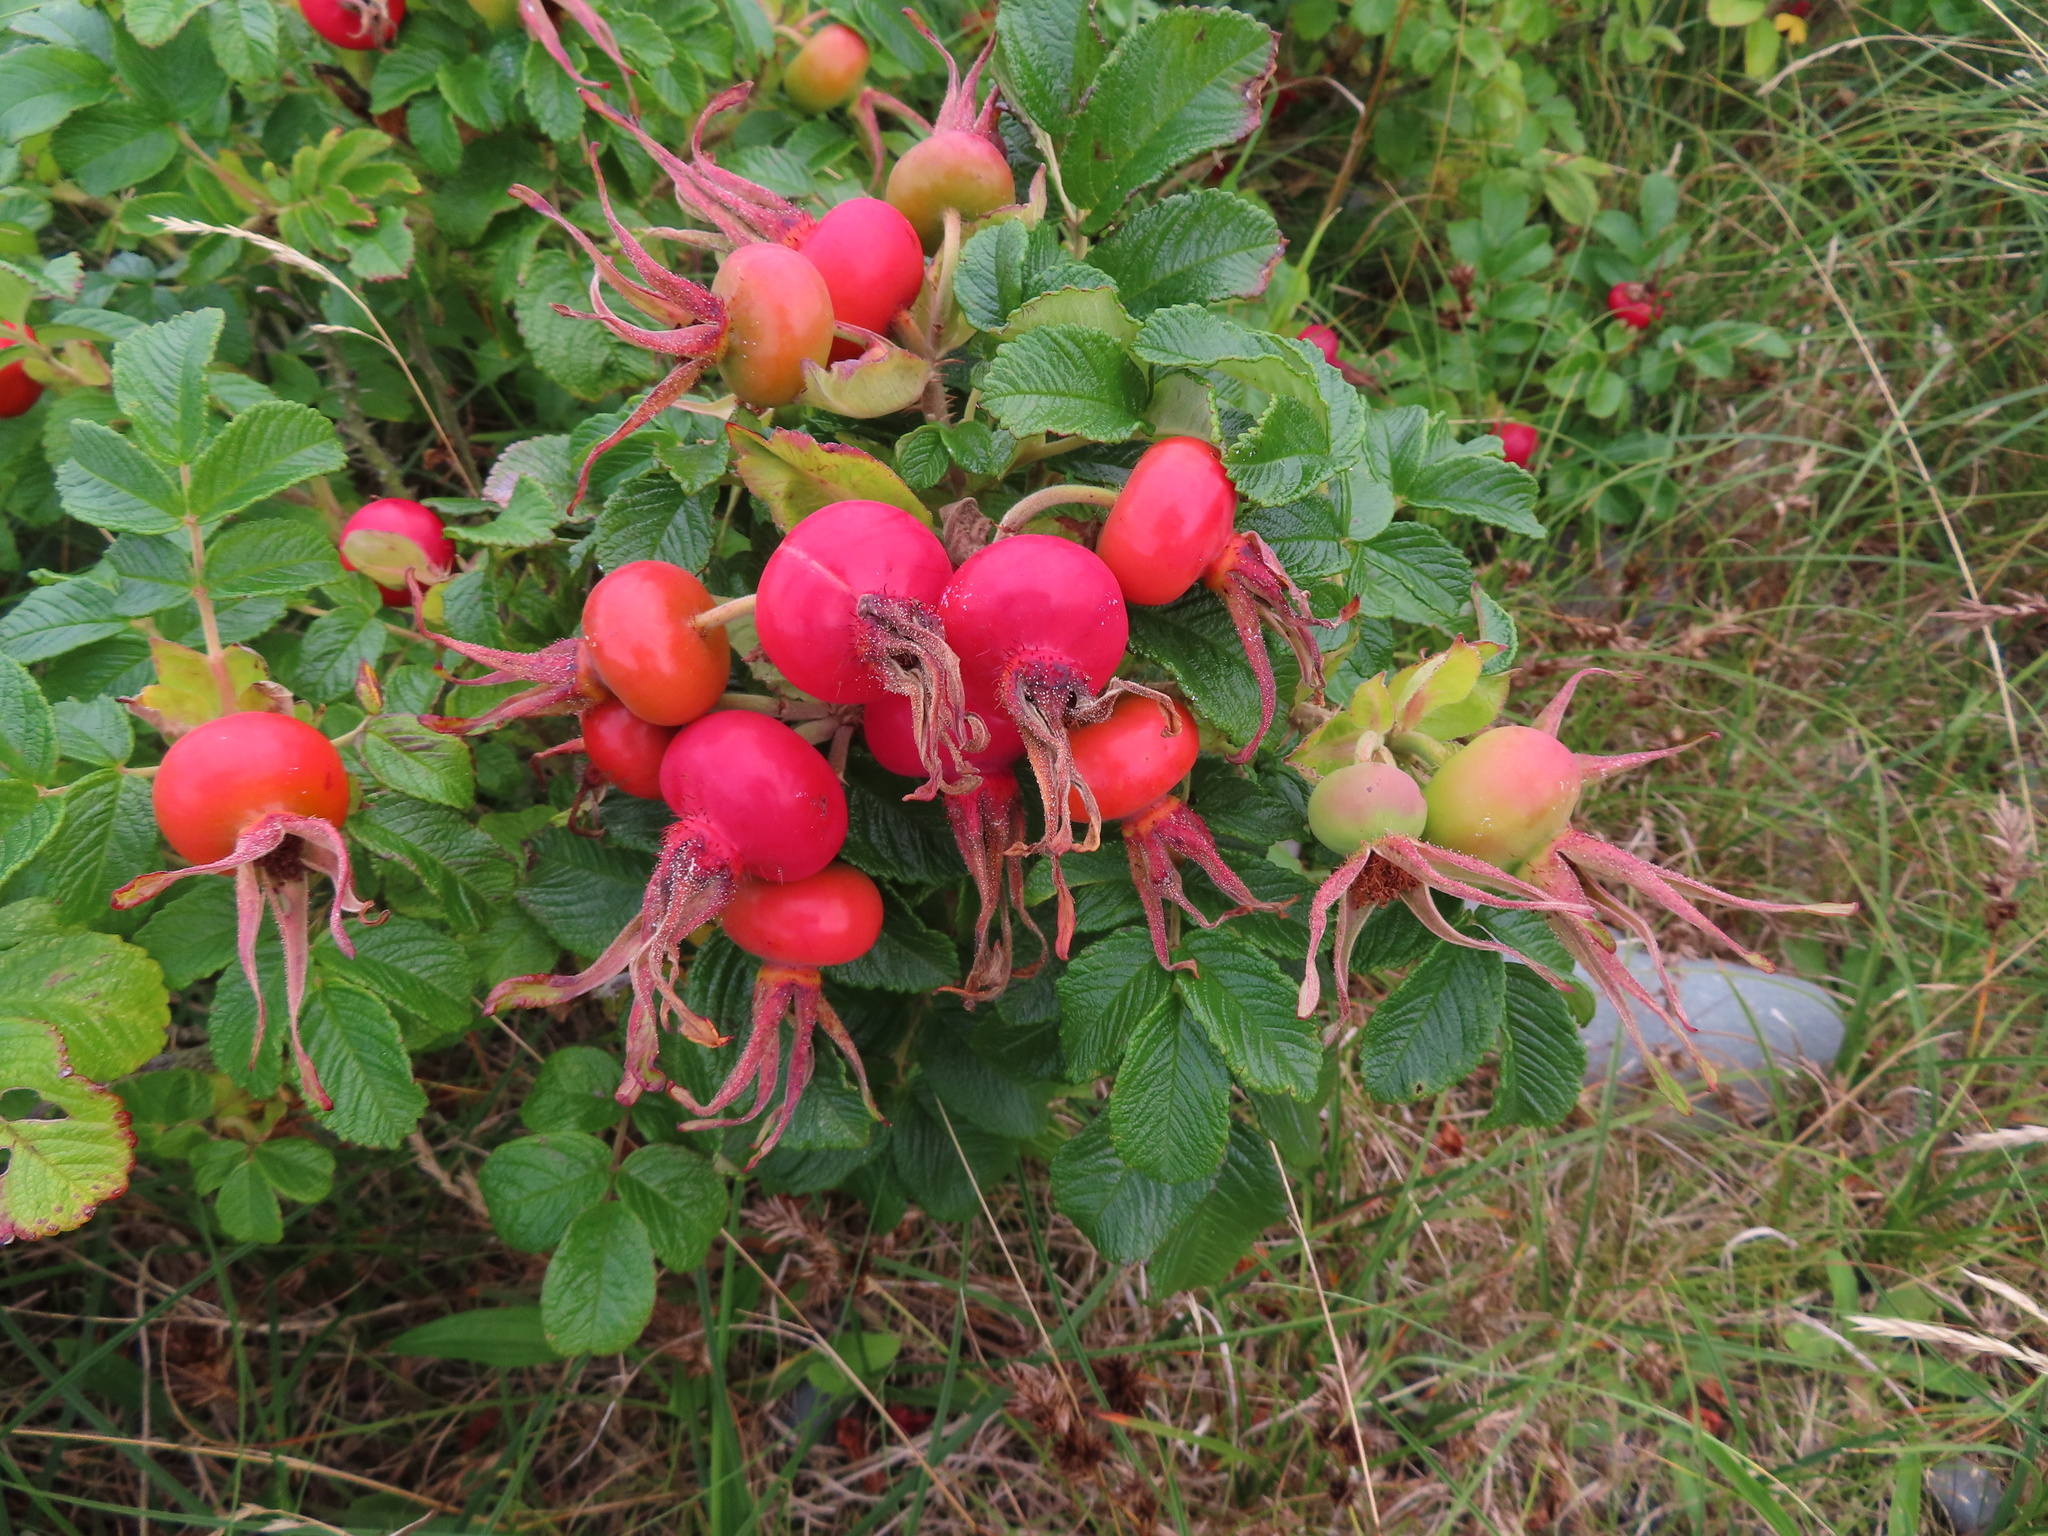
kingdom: Plantae
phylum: Tracheophyta
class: Magnoliopsida
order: Rosales
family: Rosaceae
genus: Rosa
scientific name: Rosa rugosa
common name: Japanese rose
